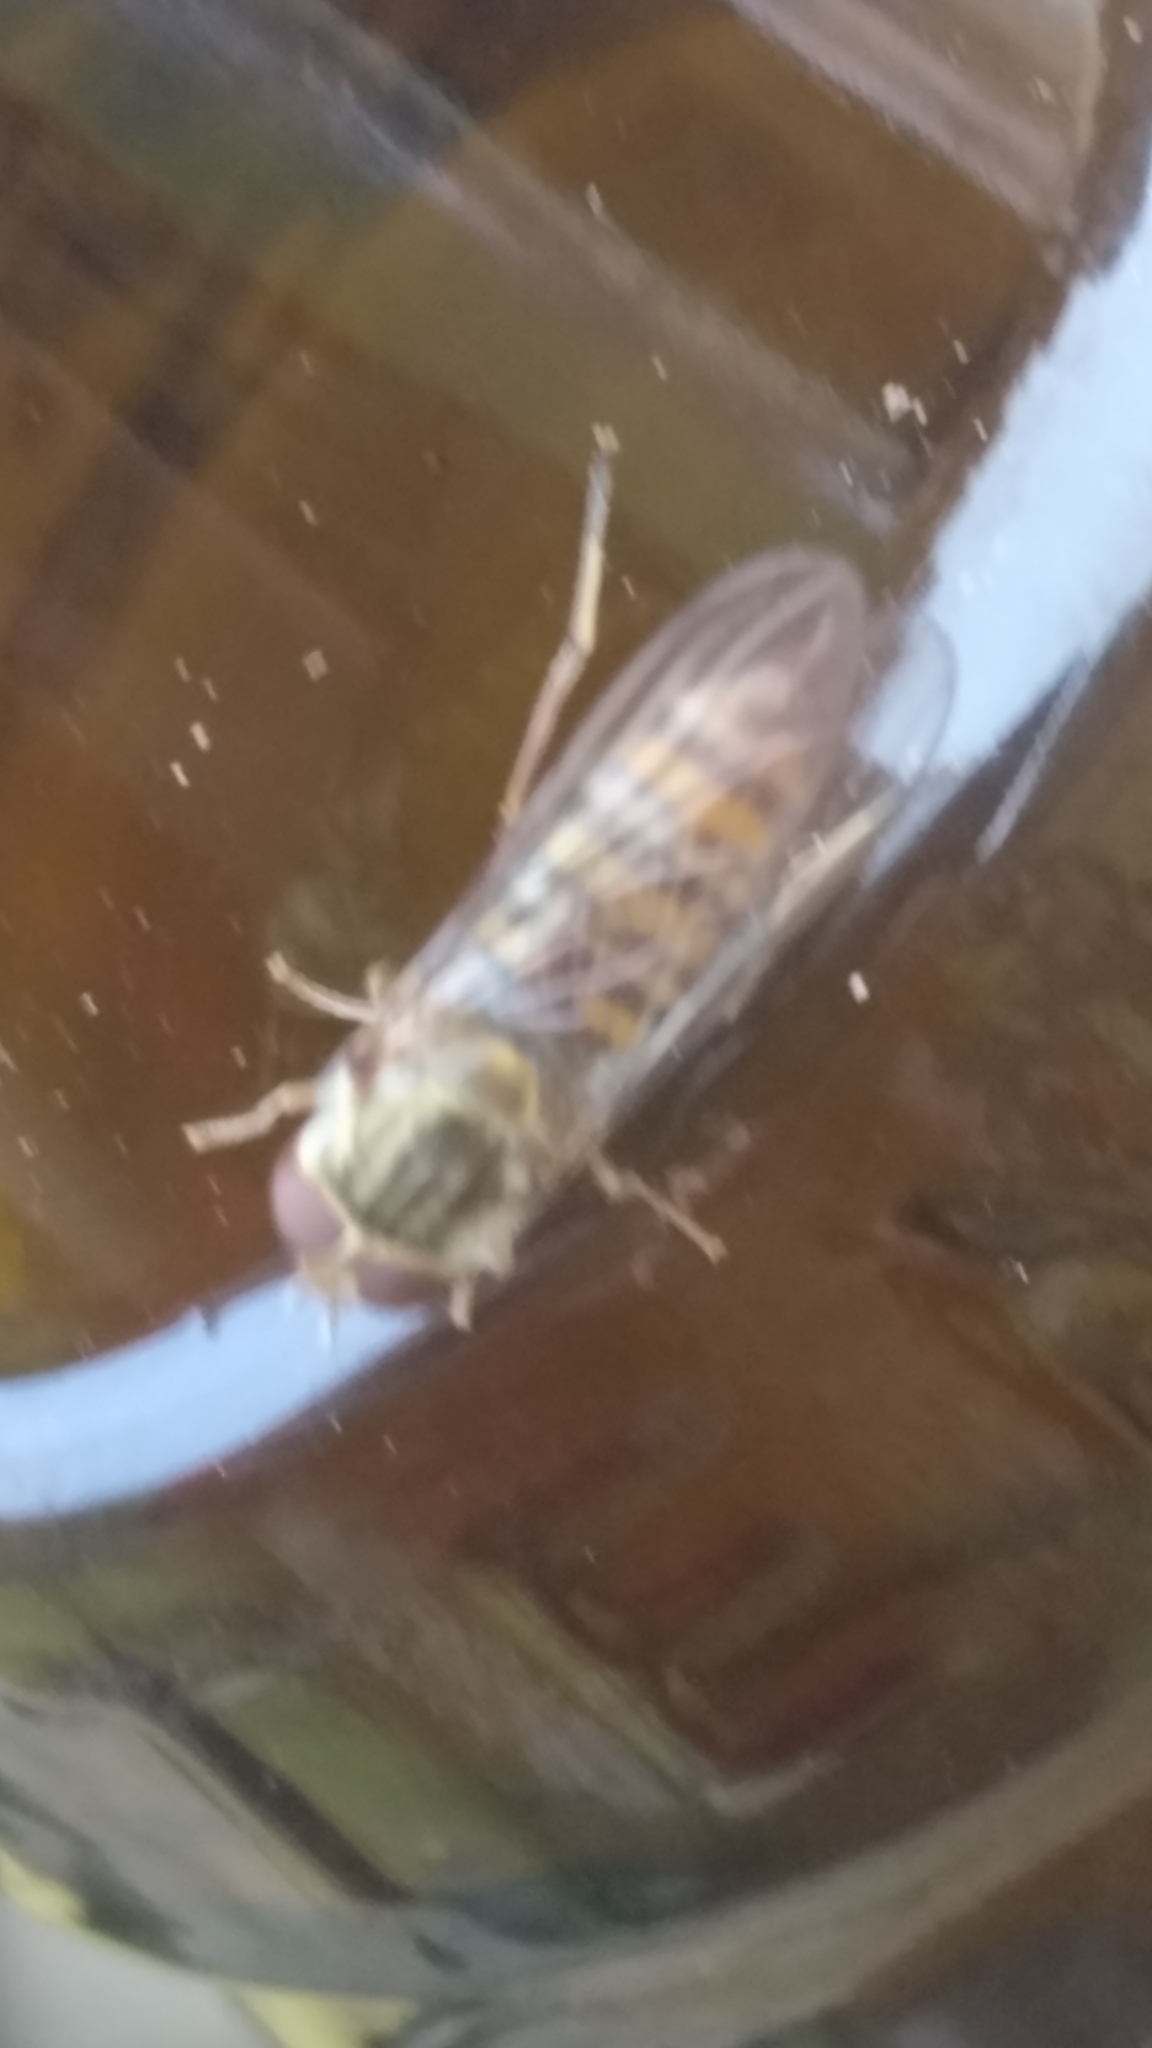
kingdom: Animalia
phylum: Arthropoda
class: Insecta
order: Diptera
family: Syrphidae
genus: Episyrphus
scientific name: Episyrphus balteatus
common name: Marmalade hoverfly
